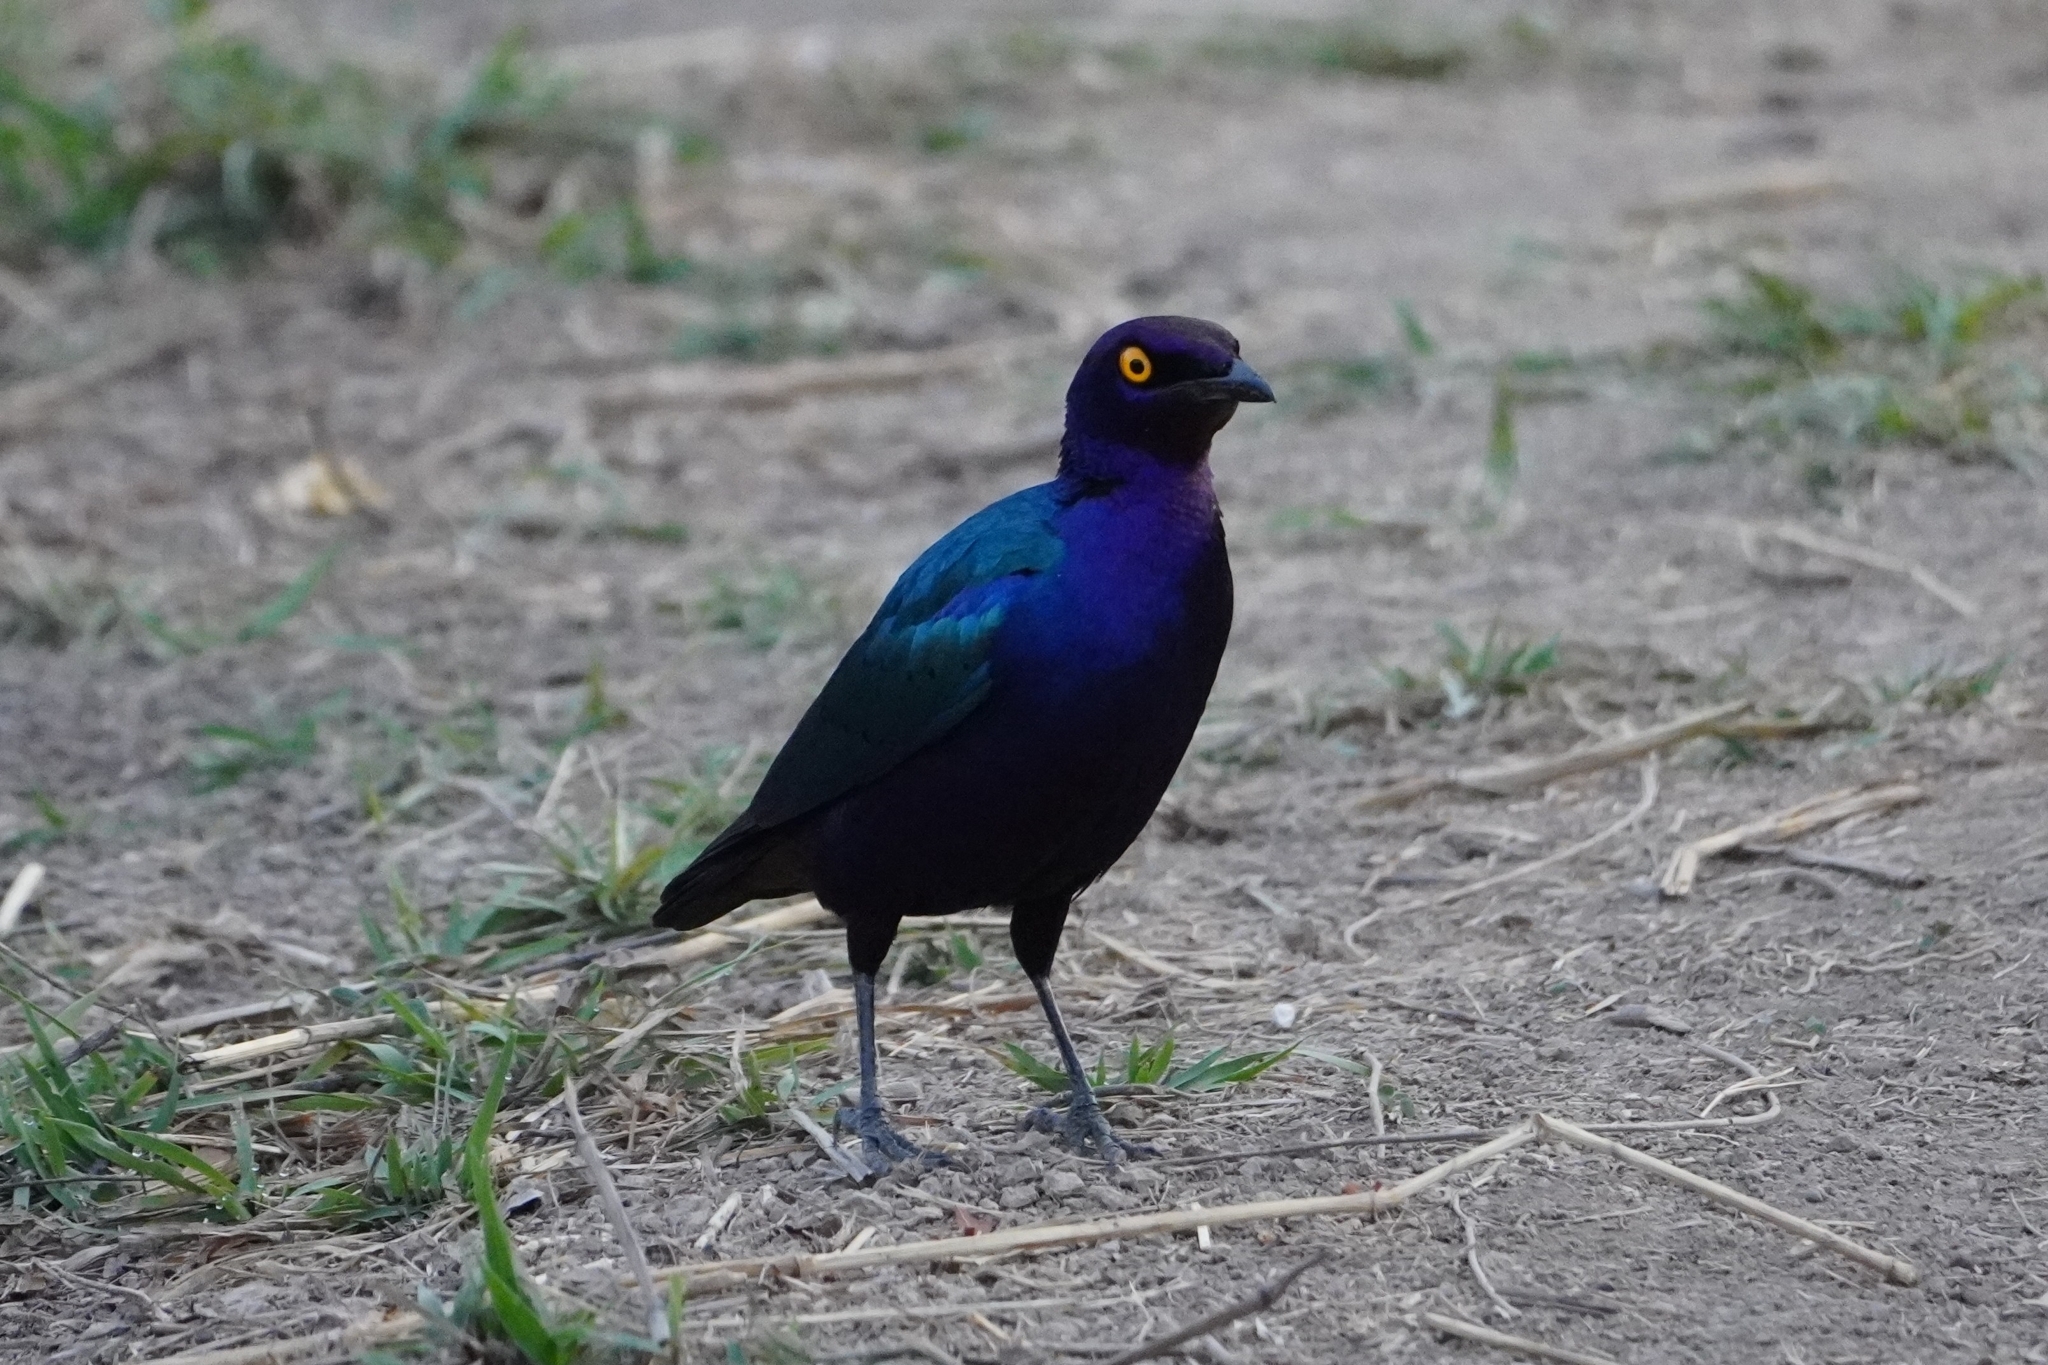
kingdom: Animalia
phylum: Chordata
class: Aves
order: Passeriformes
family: Sturnidae
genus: Lamprotornis
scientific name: Lamprotornis purpureus
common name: Purple starling
